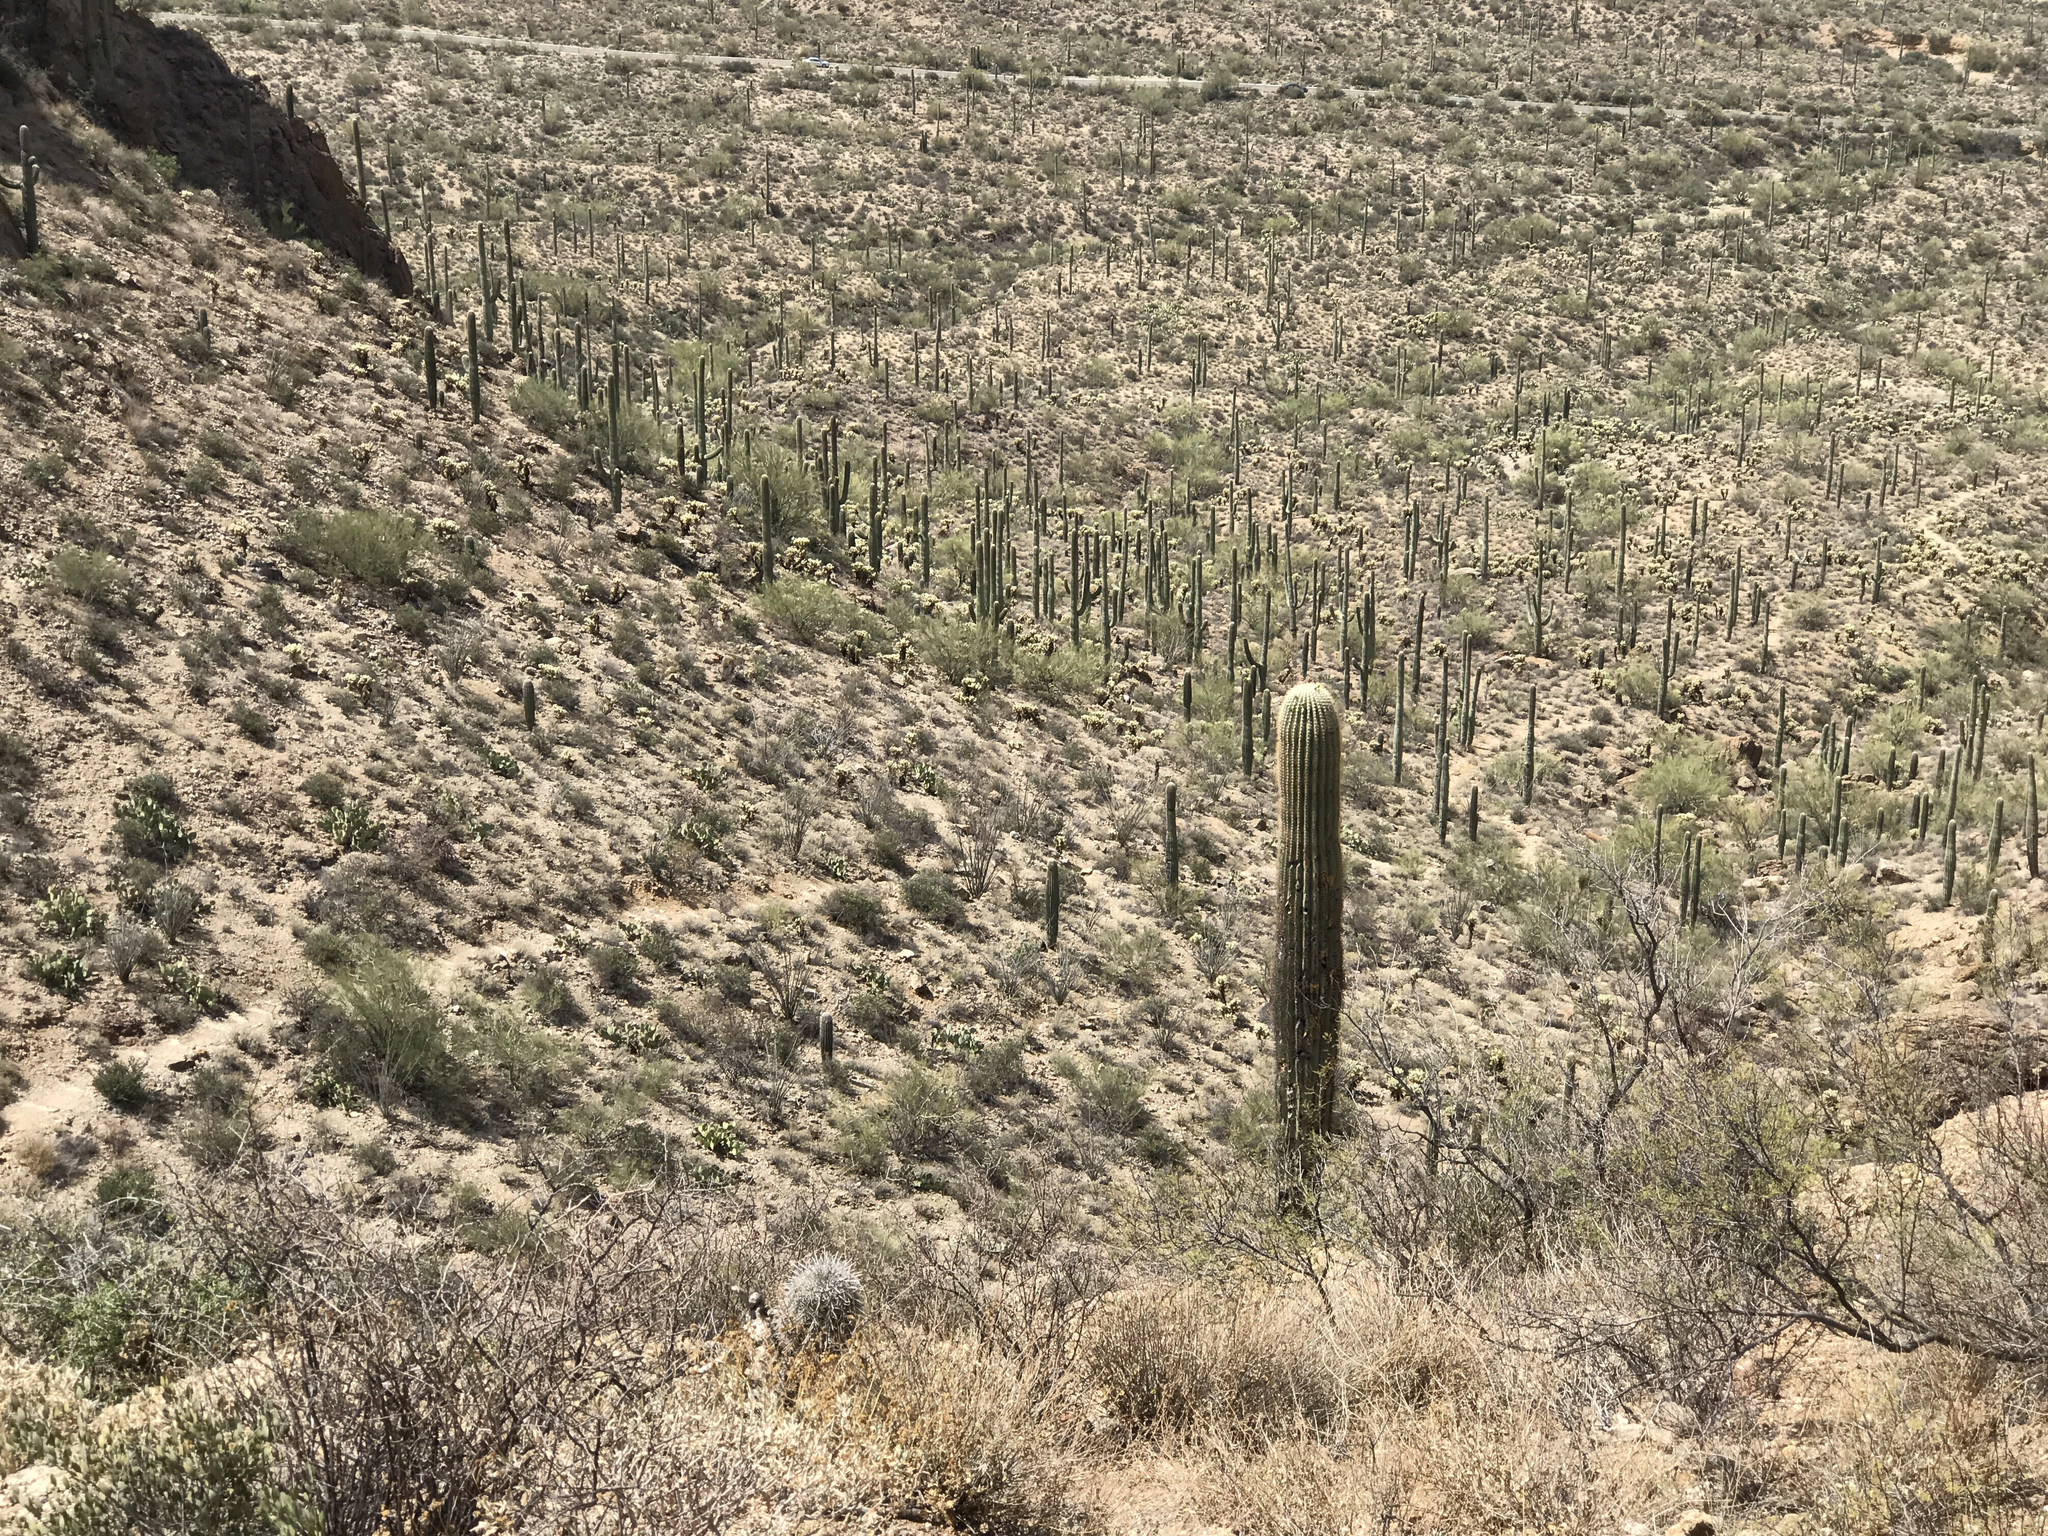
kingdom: Plantae
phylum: Tracheophyta
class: Magnoliopsida
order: Caryophyllales
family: Cactaceae
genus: Carnegiea
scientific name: Carnegiea gigantea
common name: Saguaro
